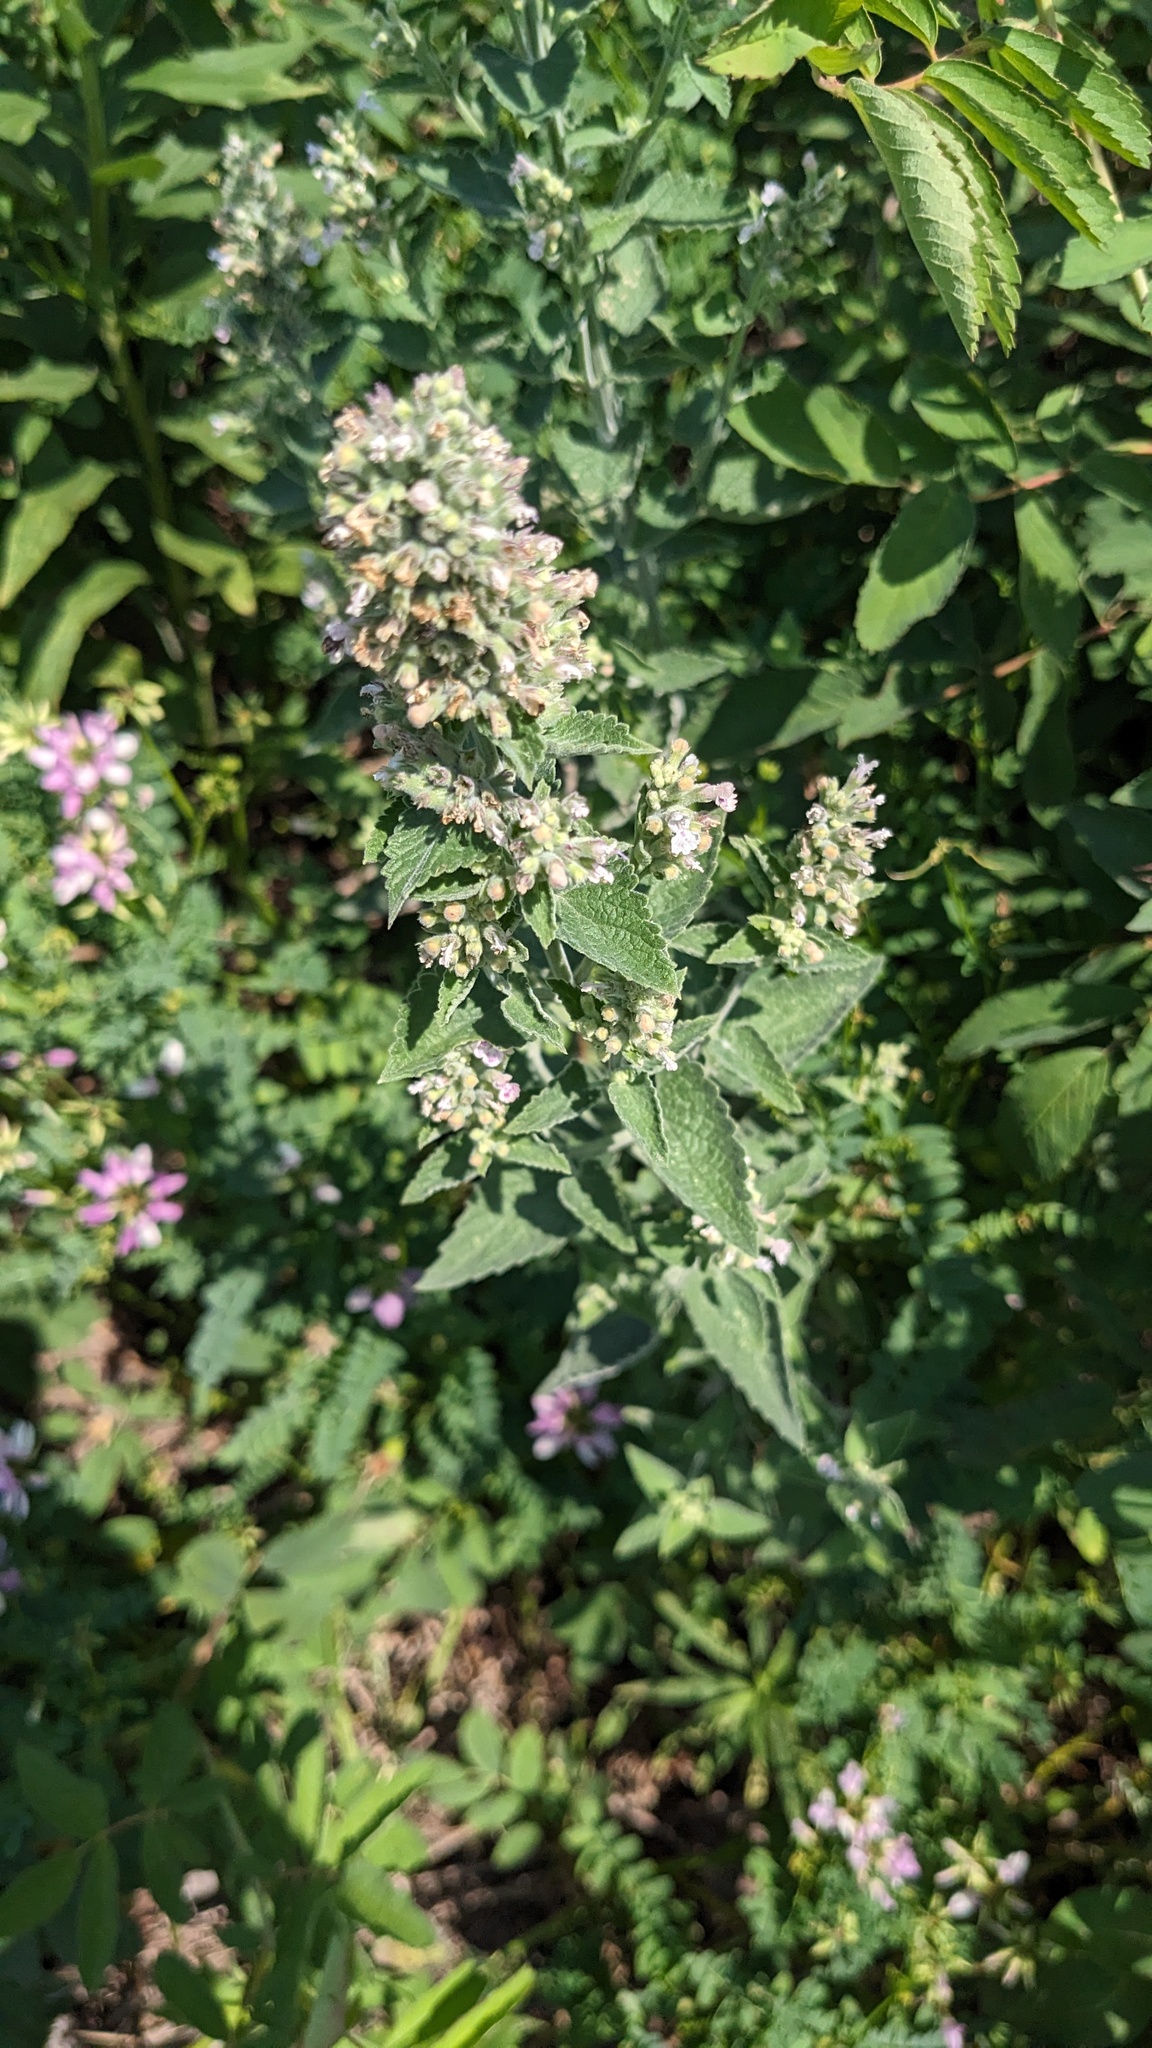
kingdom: Plantae
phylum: Tracheophyta
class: Magnoliopsida
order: Lamiales
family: Lamiaceae
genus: Nepeta
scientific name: Nepeta cataria
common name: Catnip
